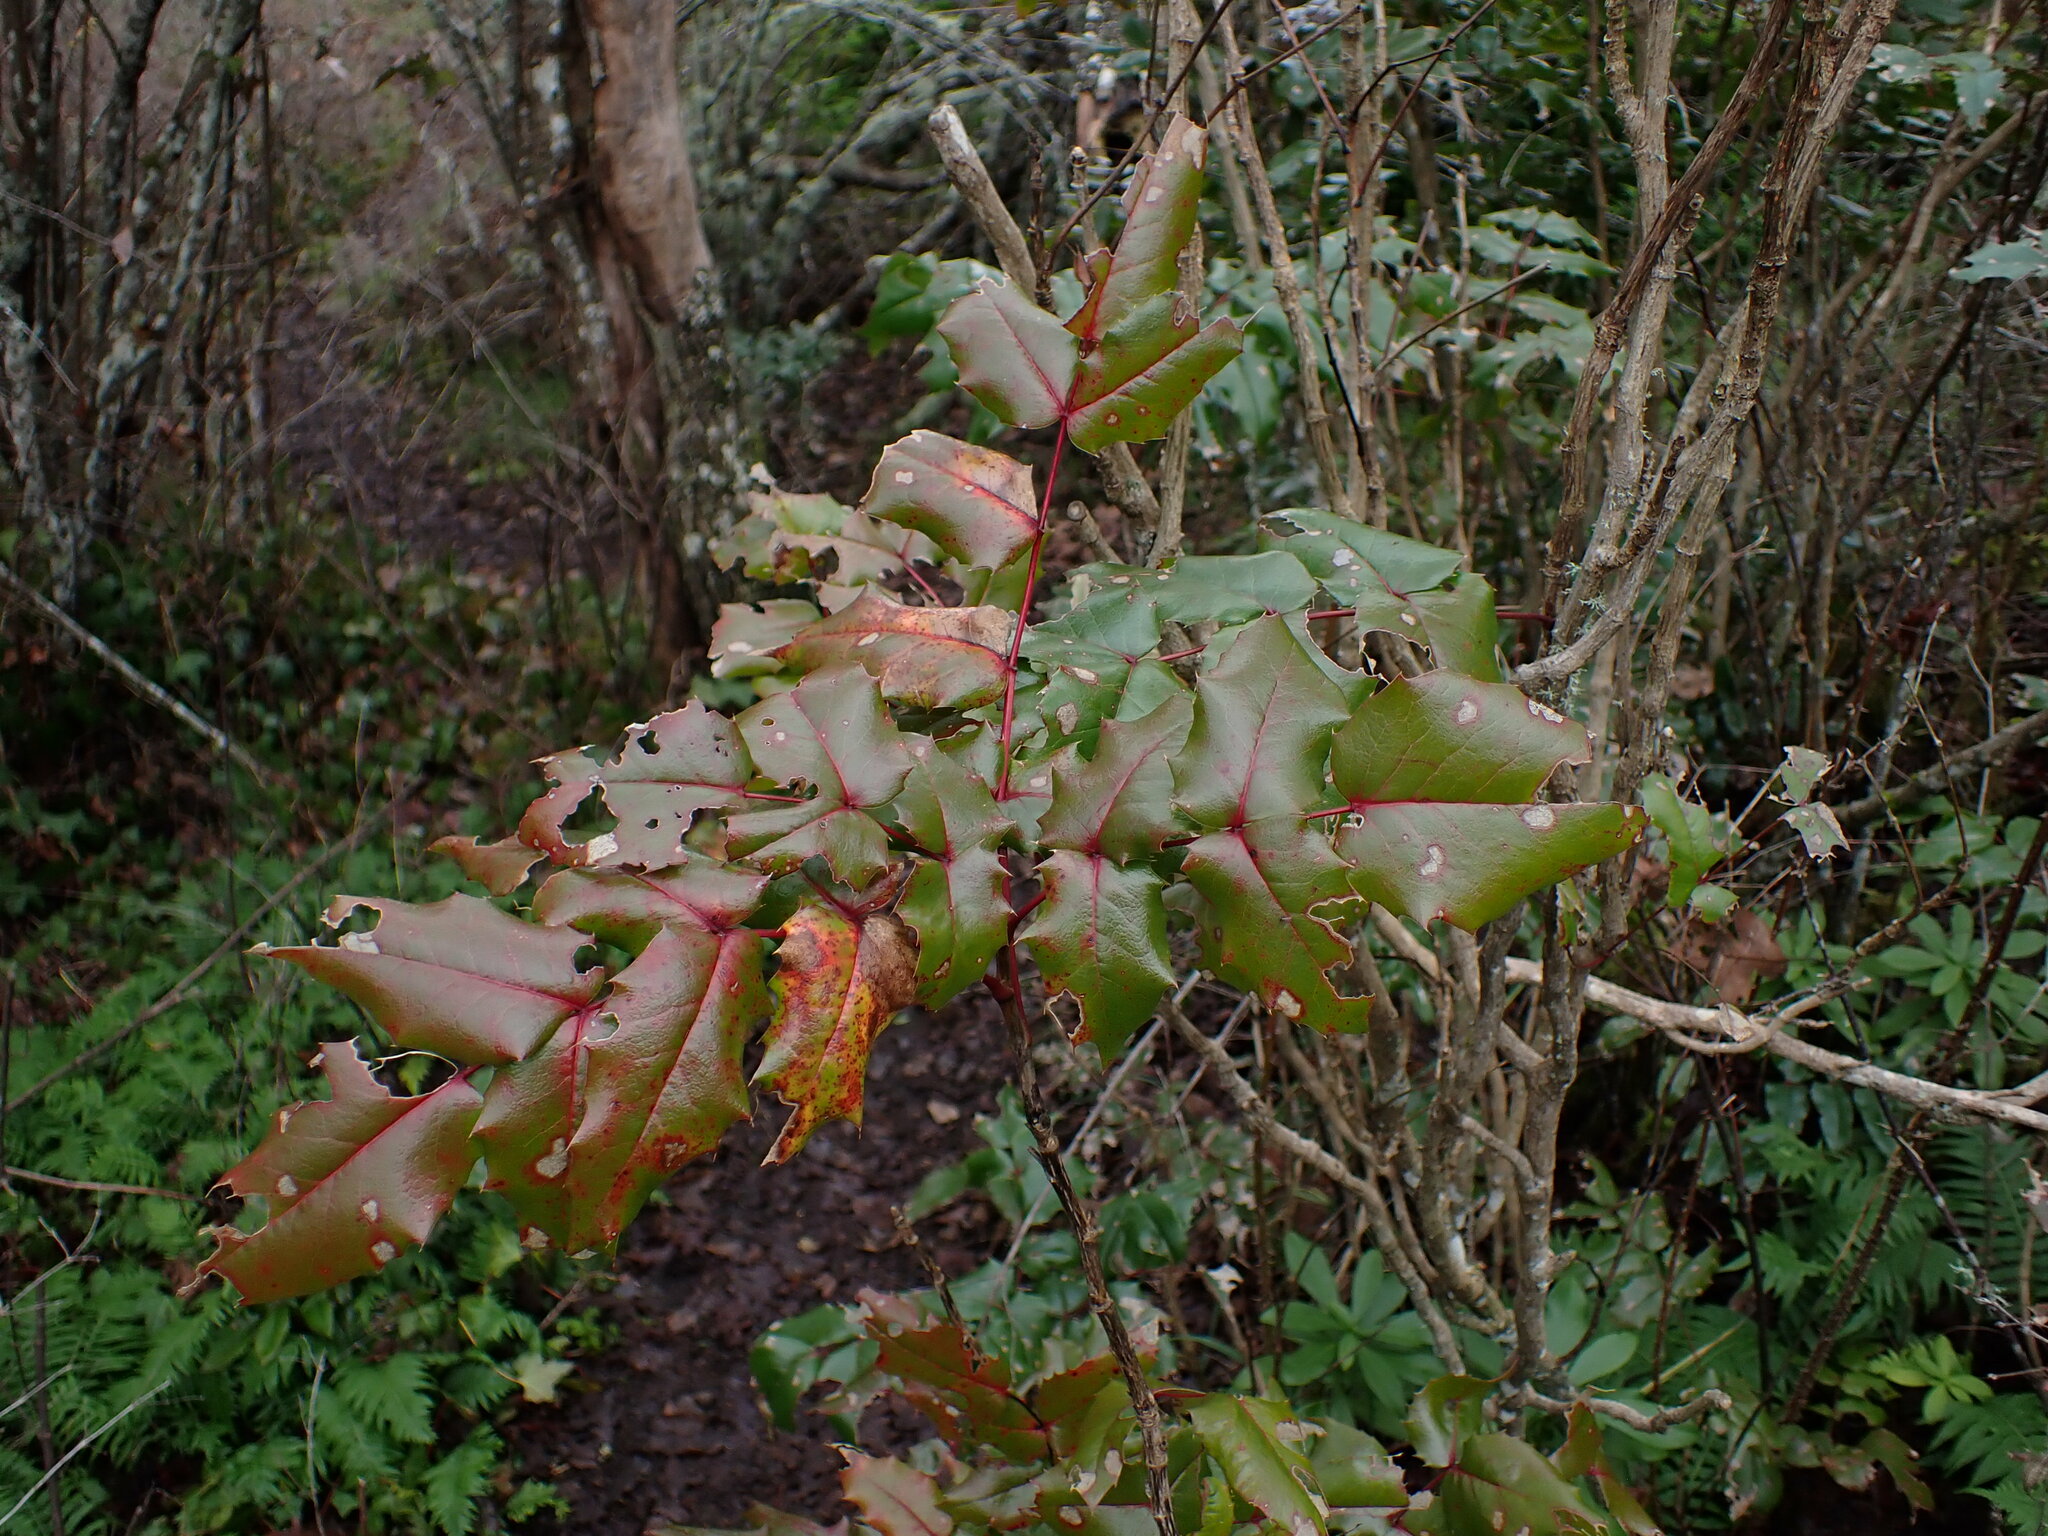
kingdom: Plantae
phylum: Tracheophyta
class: Magnoliopsida
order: Ranunculales
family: Berberidaceae
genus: Mahonia
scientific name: Mahonia aquifolium
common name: Oregon-grape
